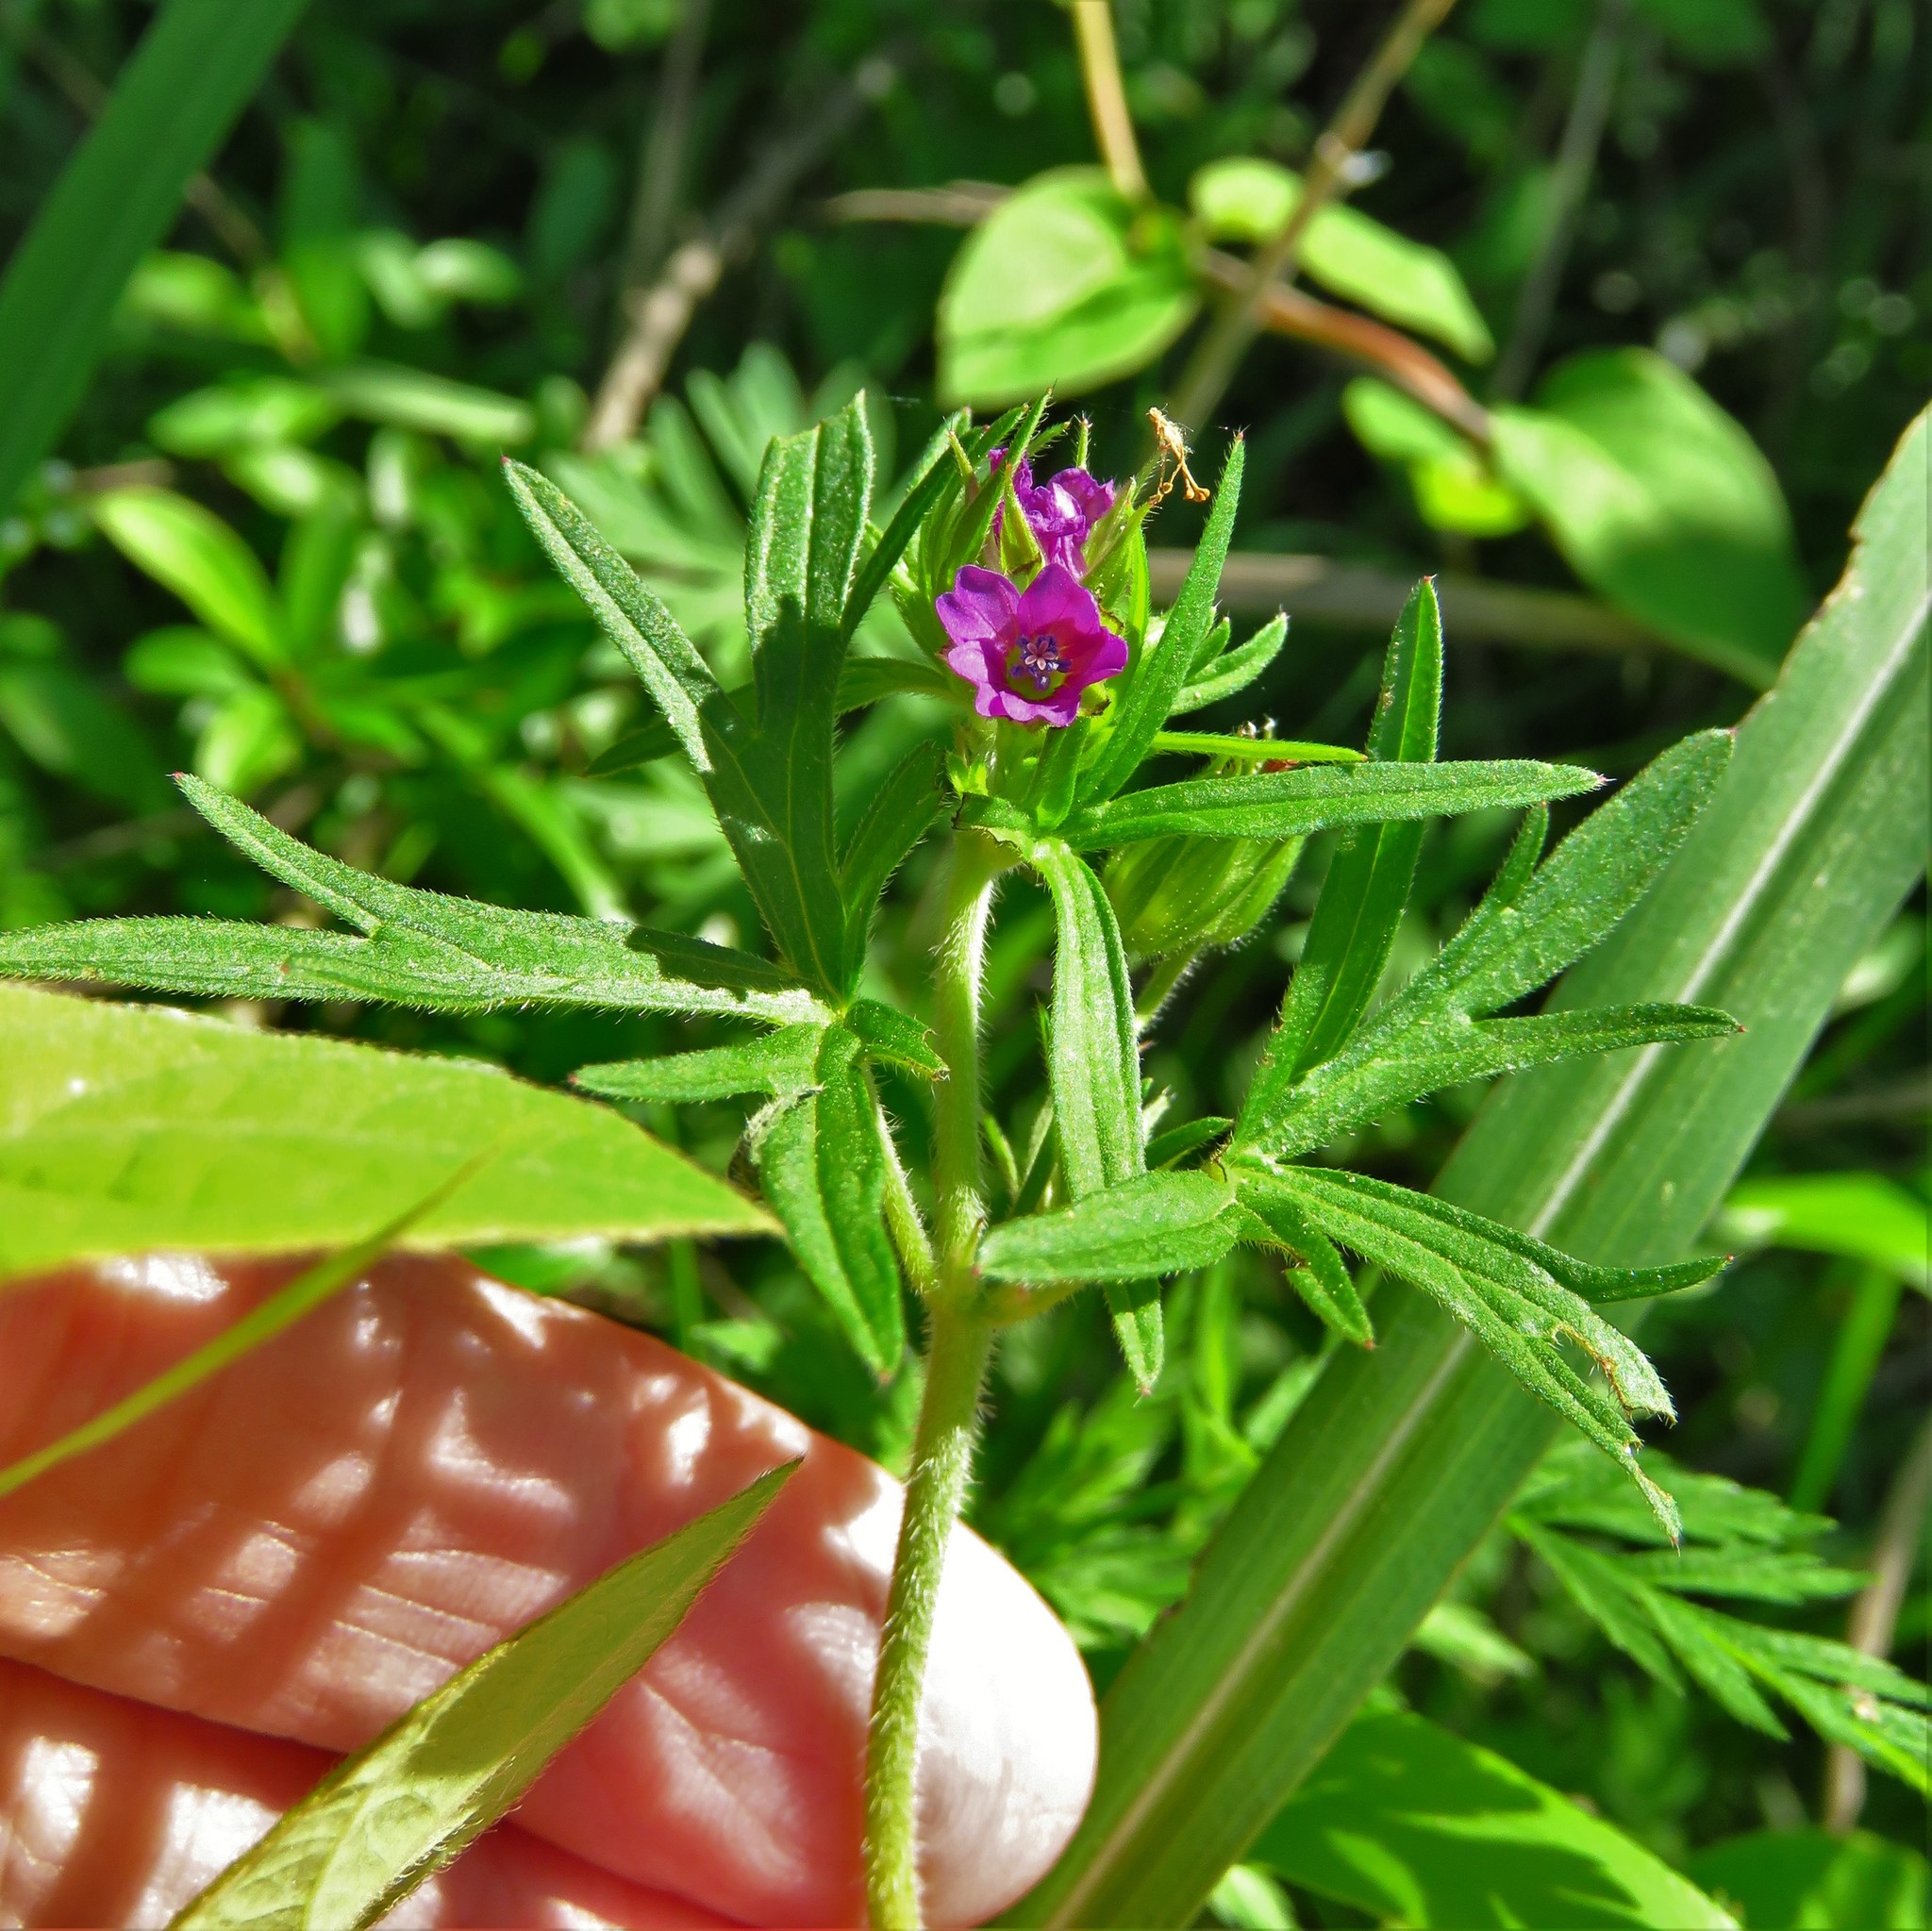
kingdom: Plantae
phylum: Tracheophyta
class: Magnoliopsida
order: Geraniales
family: Geraniaceae
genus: Geranium
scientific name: Geranium dissectum
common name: Cut-leaved crane's-bill
